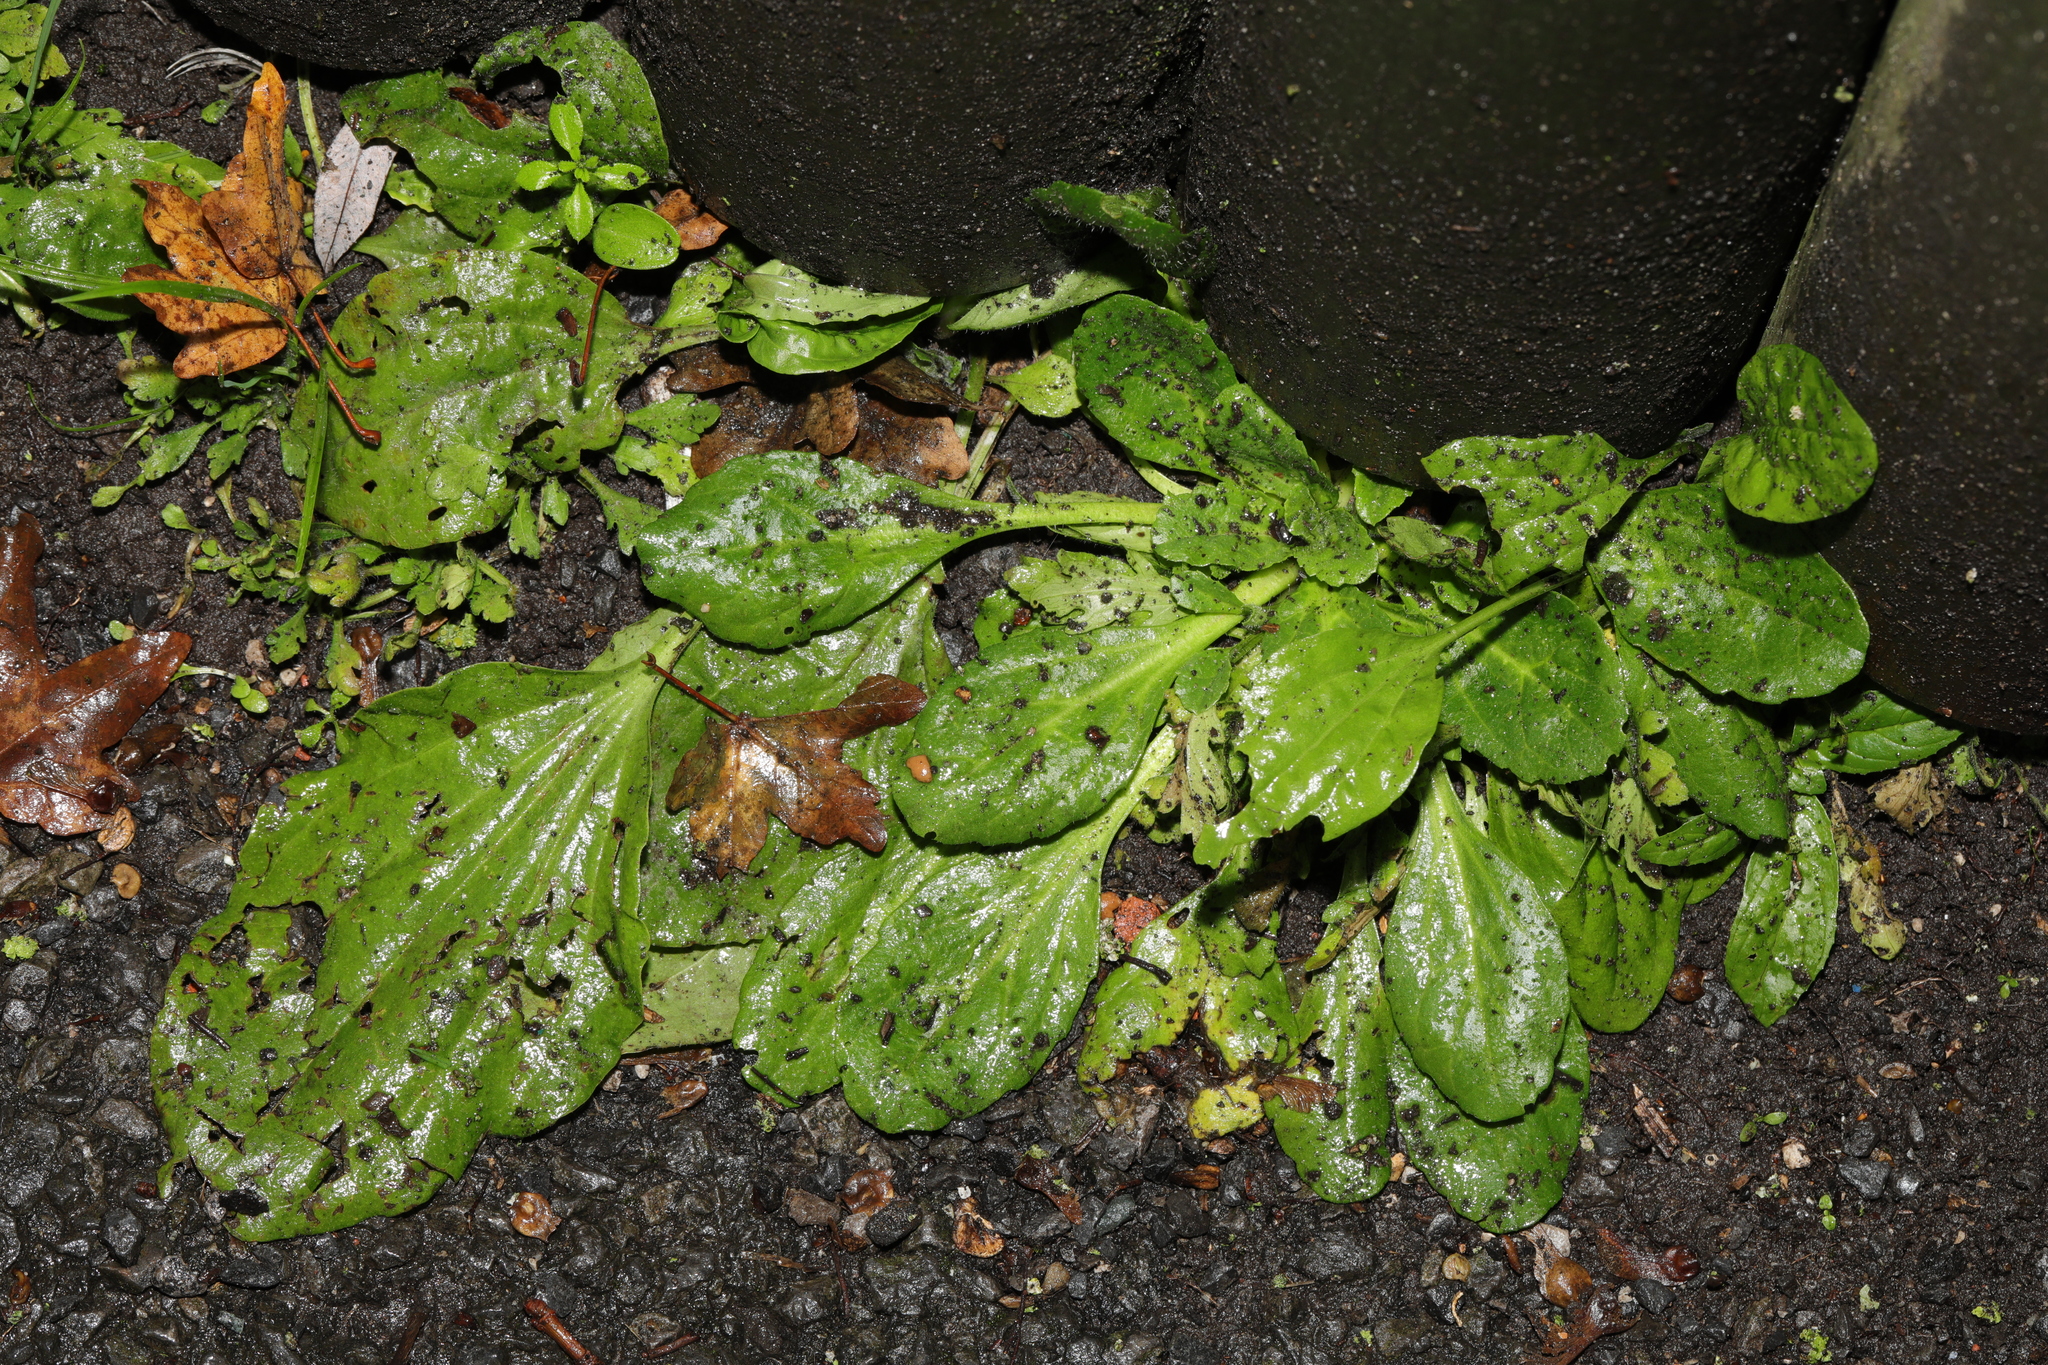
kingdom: Plantae
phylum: Tracheophyta
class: Magnoliopsida
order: Lamiales
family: Plantaginaceae
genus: Plantago
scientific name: Plantago major
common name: Common plantain
